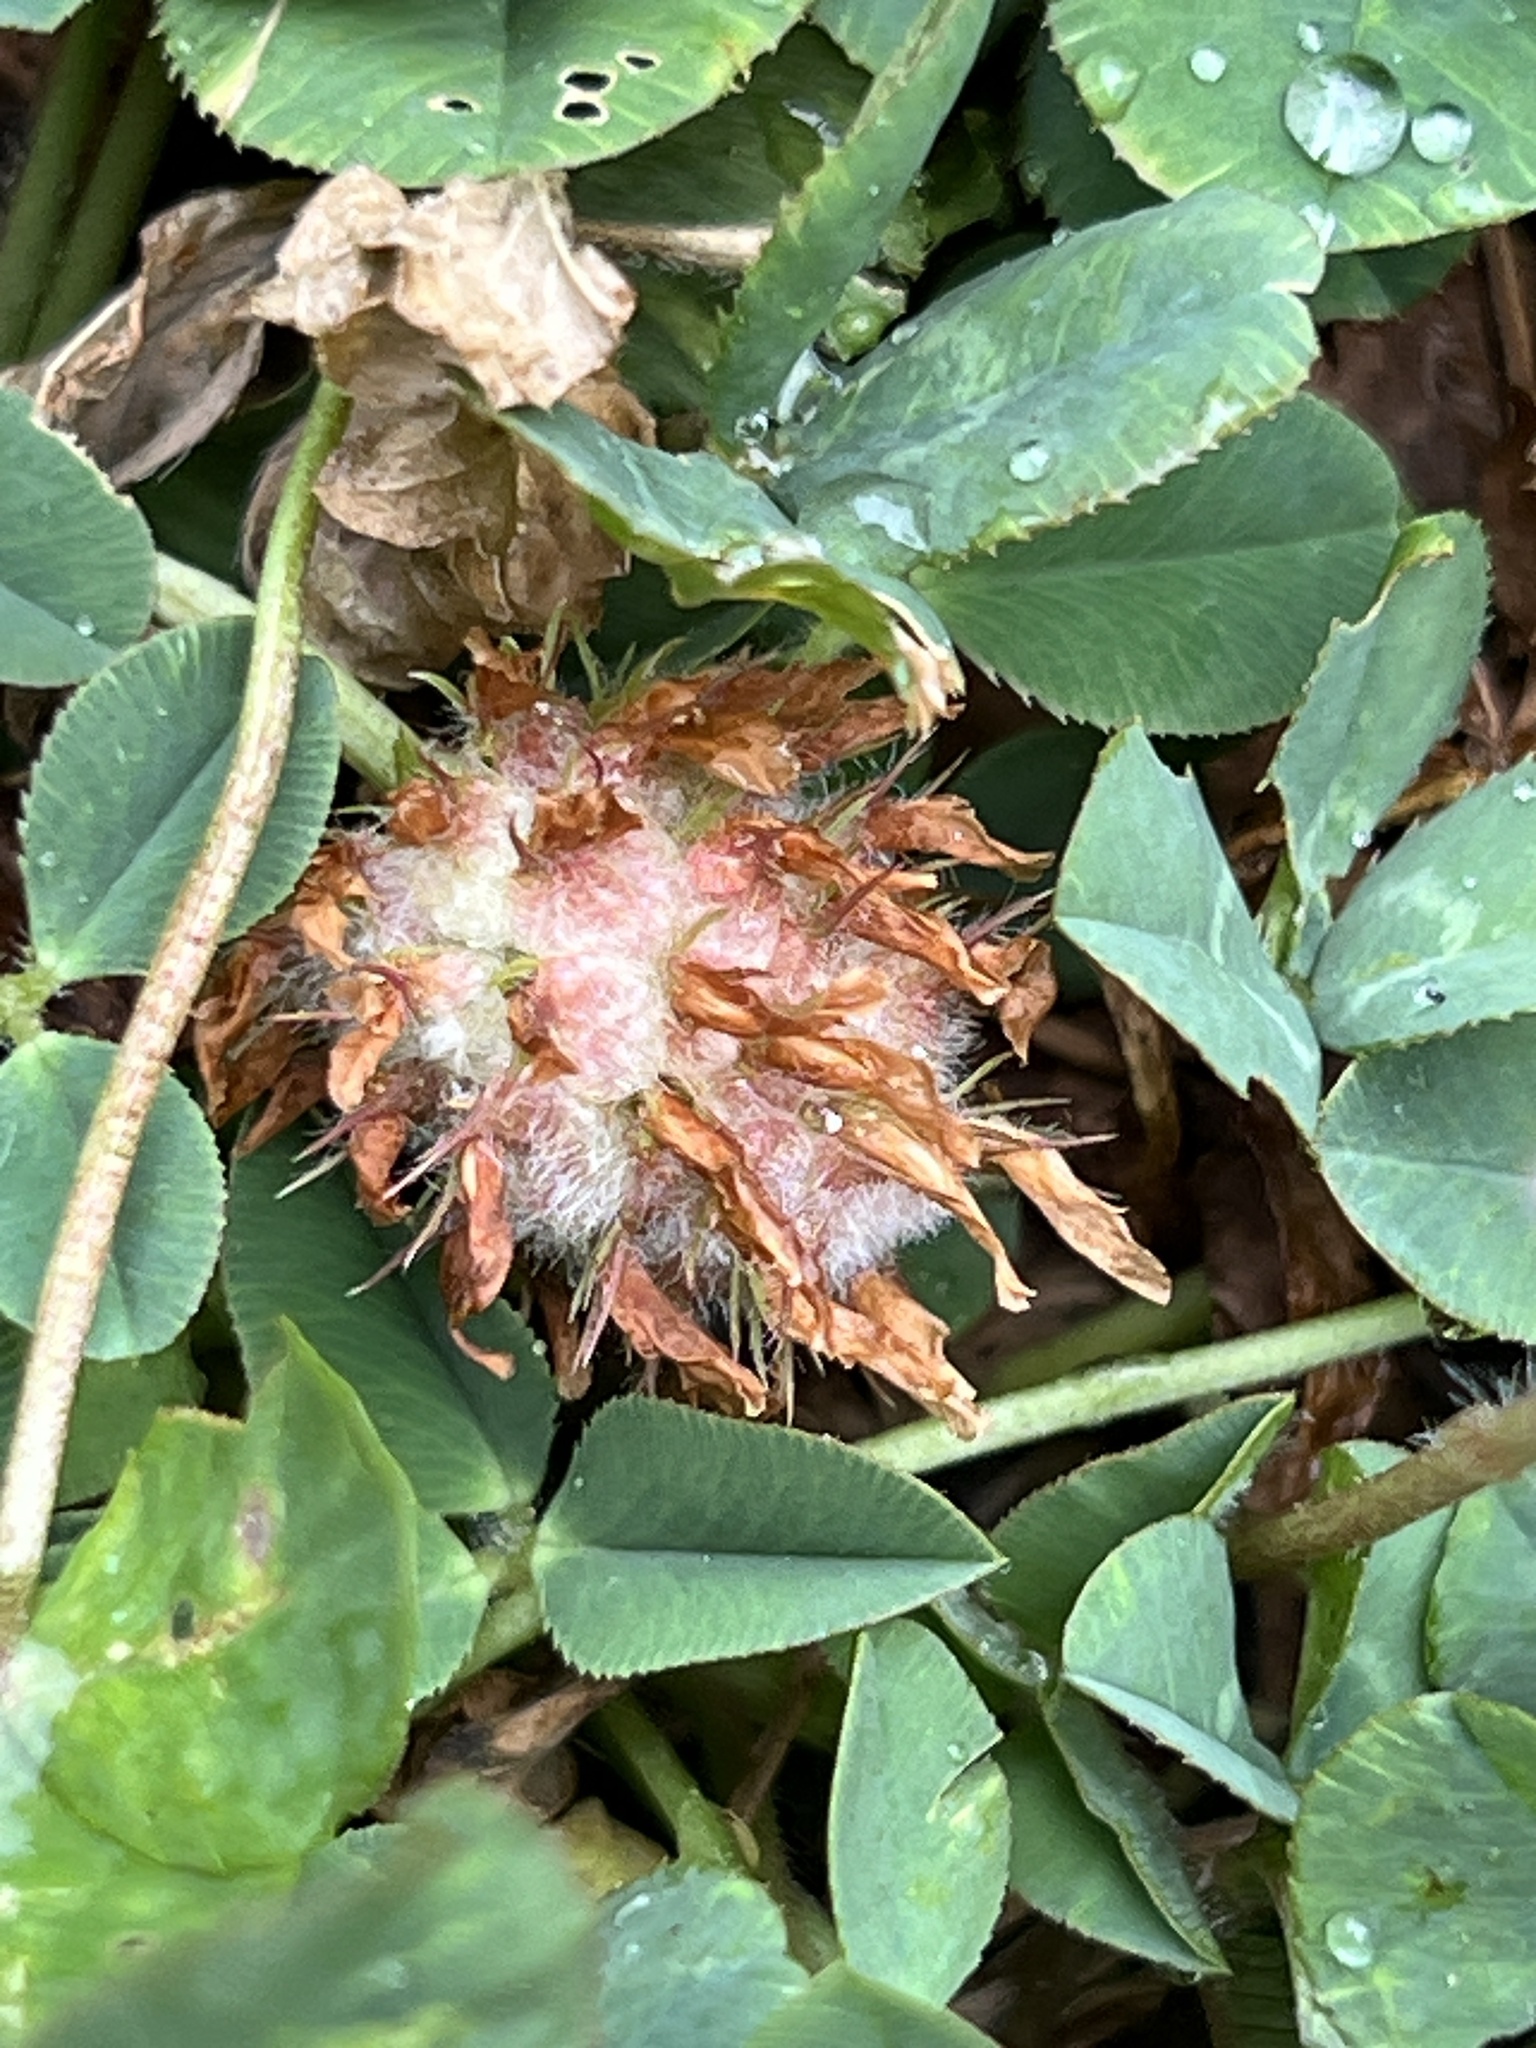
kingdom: Plantae
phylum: Tracheophyta
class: Magnoliopsida
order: Fabales
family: Fabaceae
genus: Trifolium
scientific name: Trifolium fragiferum
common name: Strawberry clover
